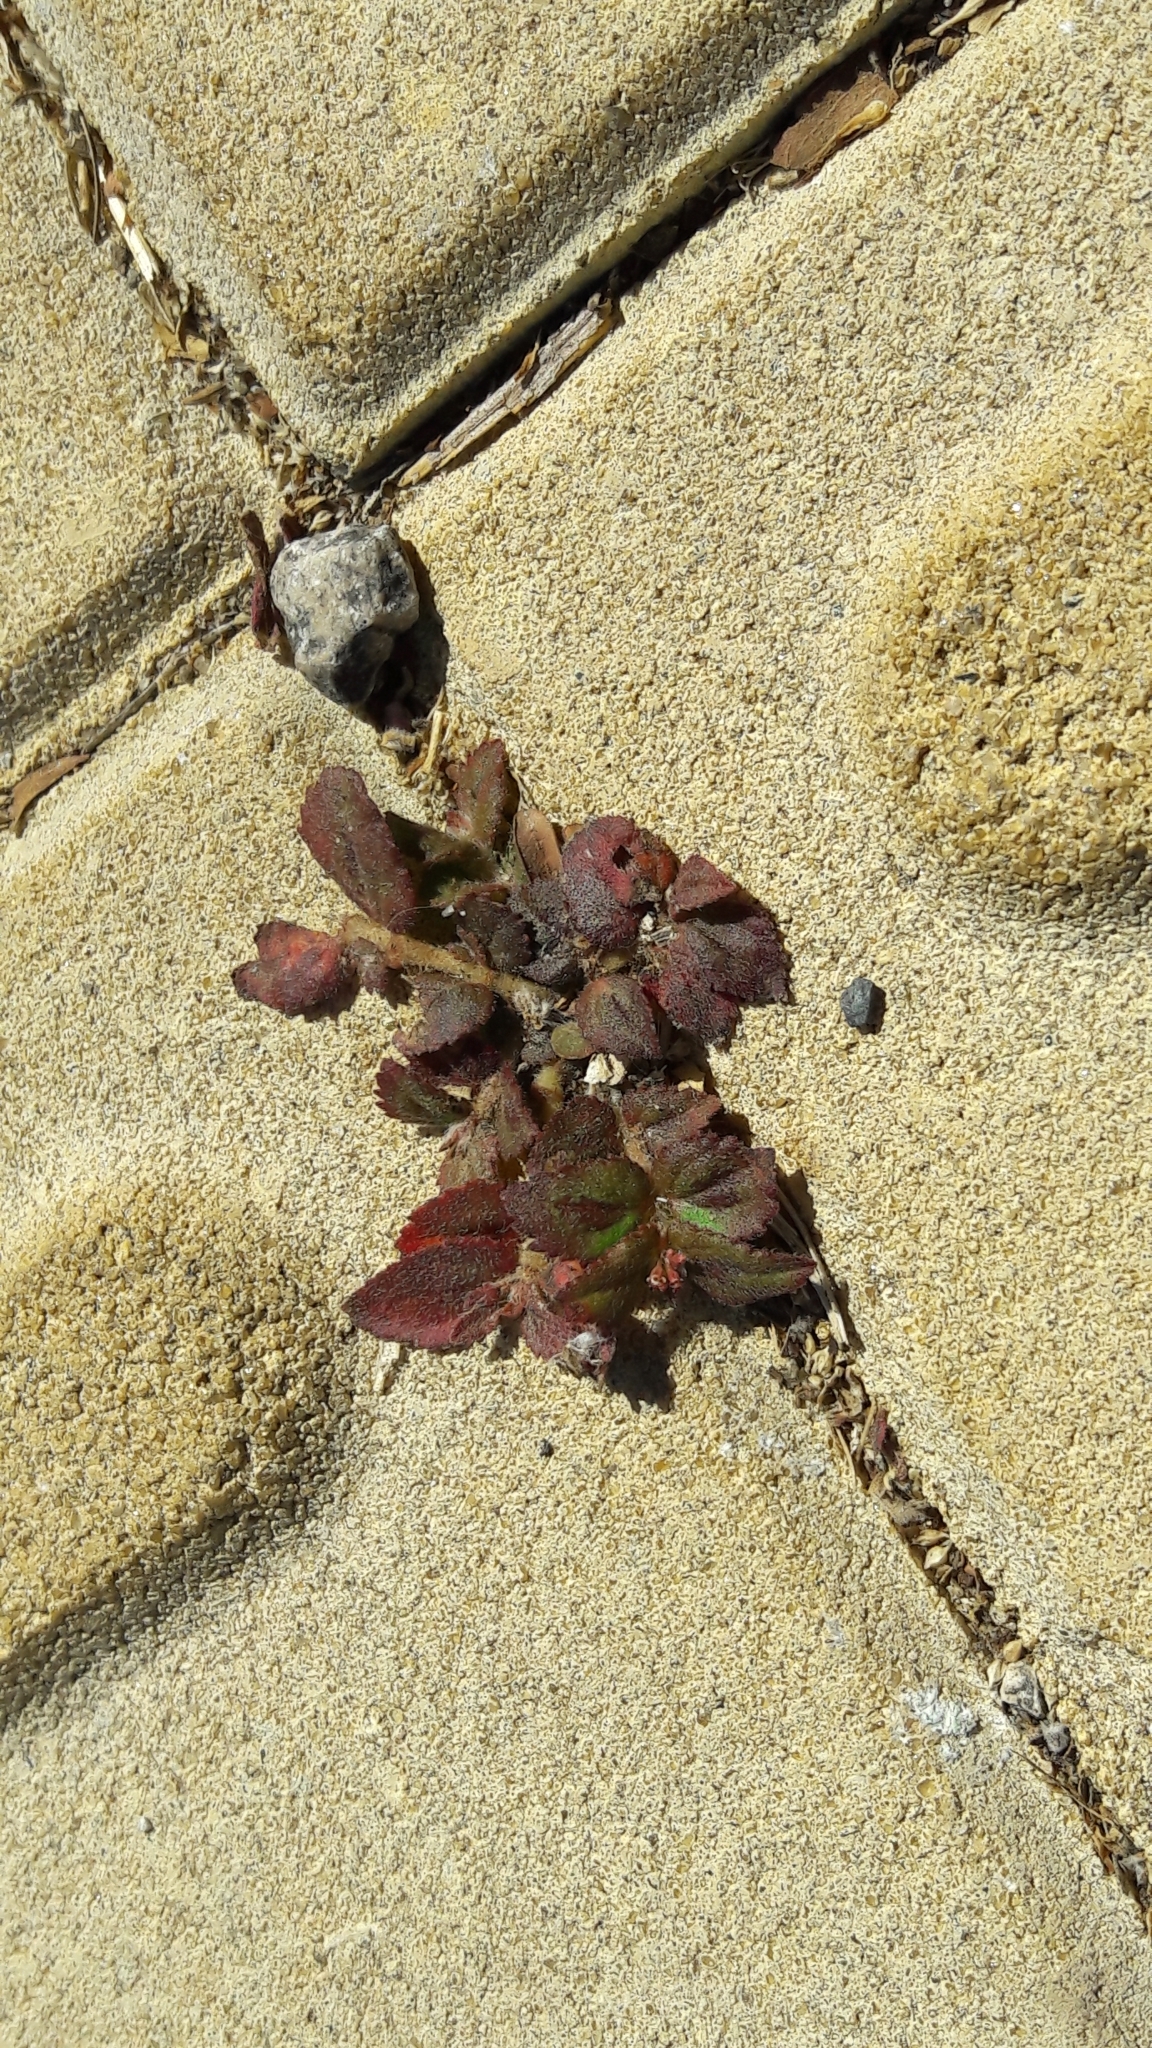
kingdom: Plantae
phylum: Tracheophyta
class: Magnoliopsida
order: Malpighiales
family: Euphorbiaceae
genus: Euphorbia
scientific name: Euphorbia hirta
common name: Pillpod sandmat
